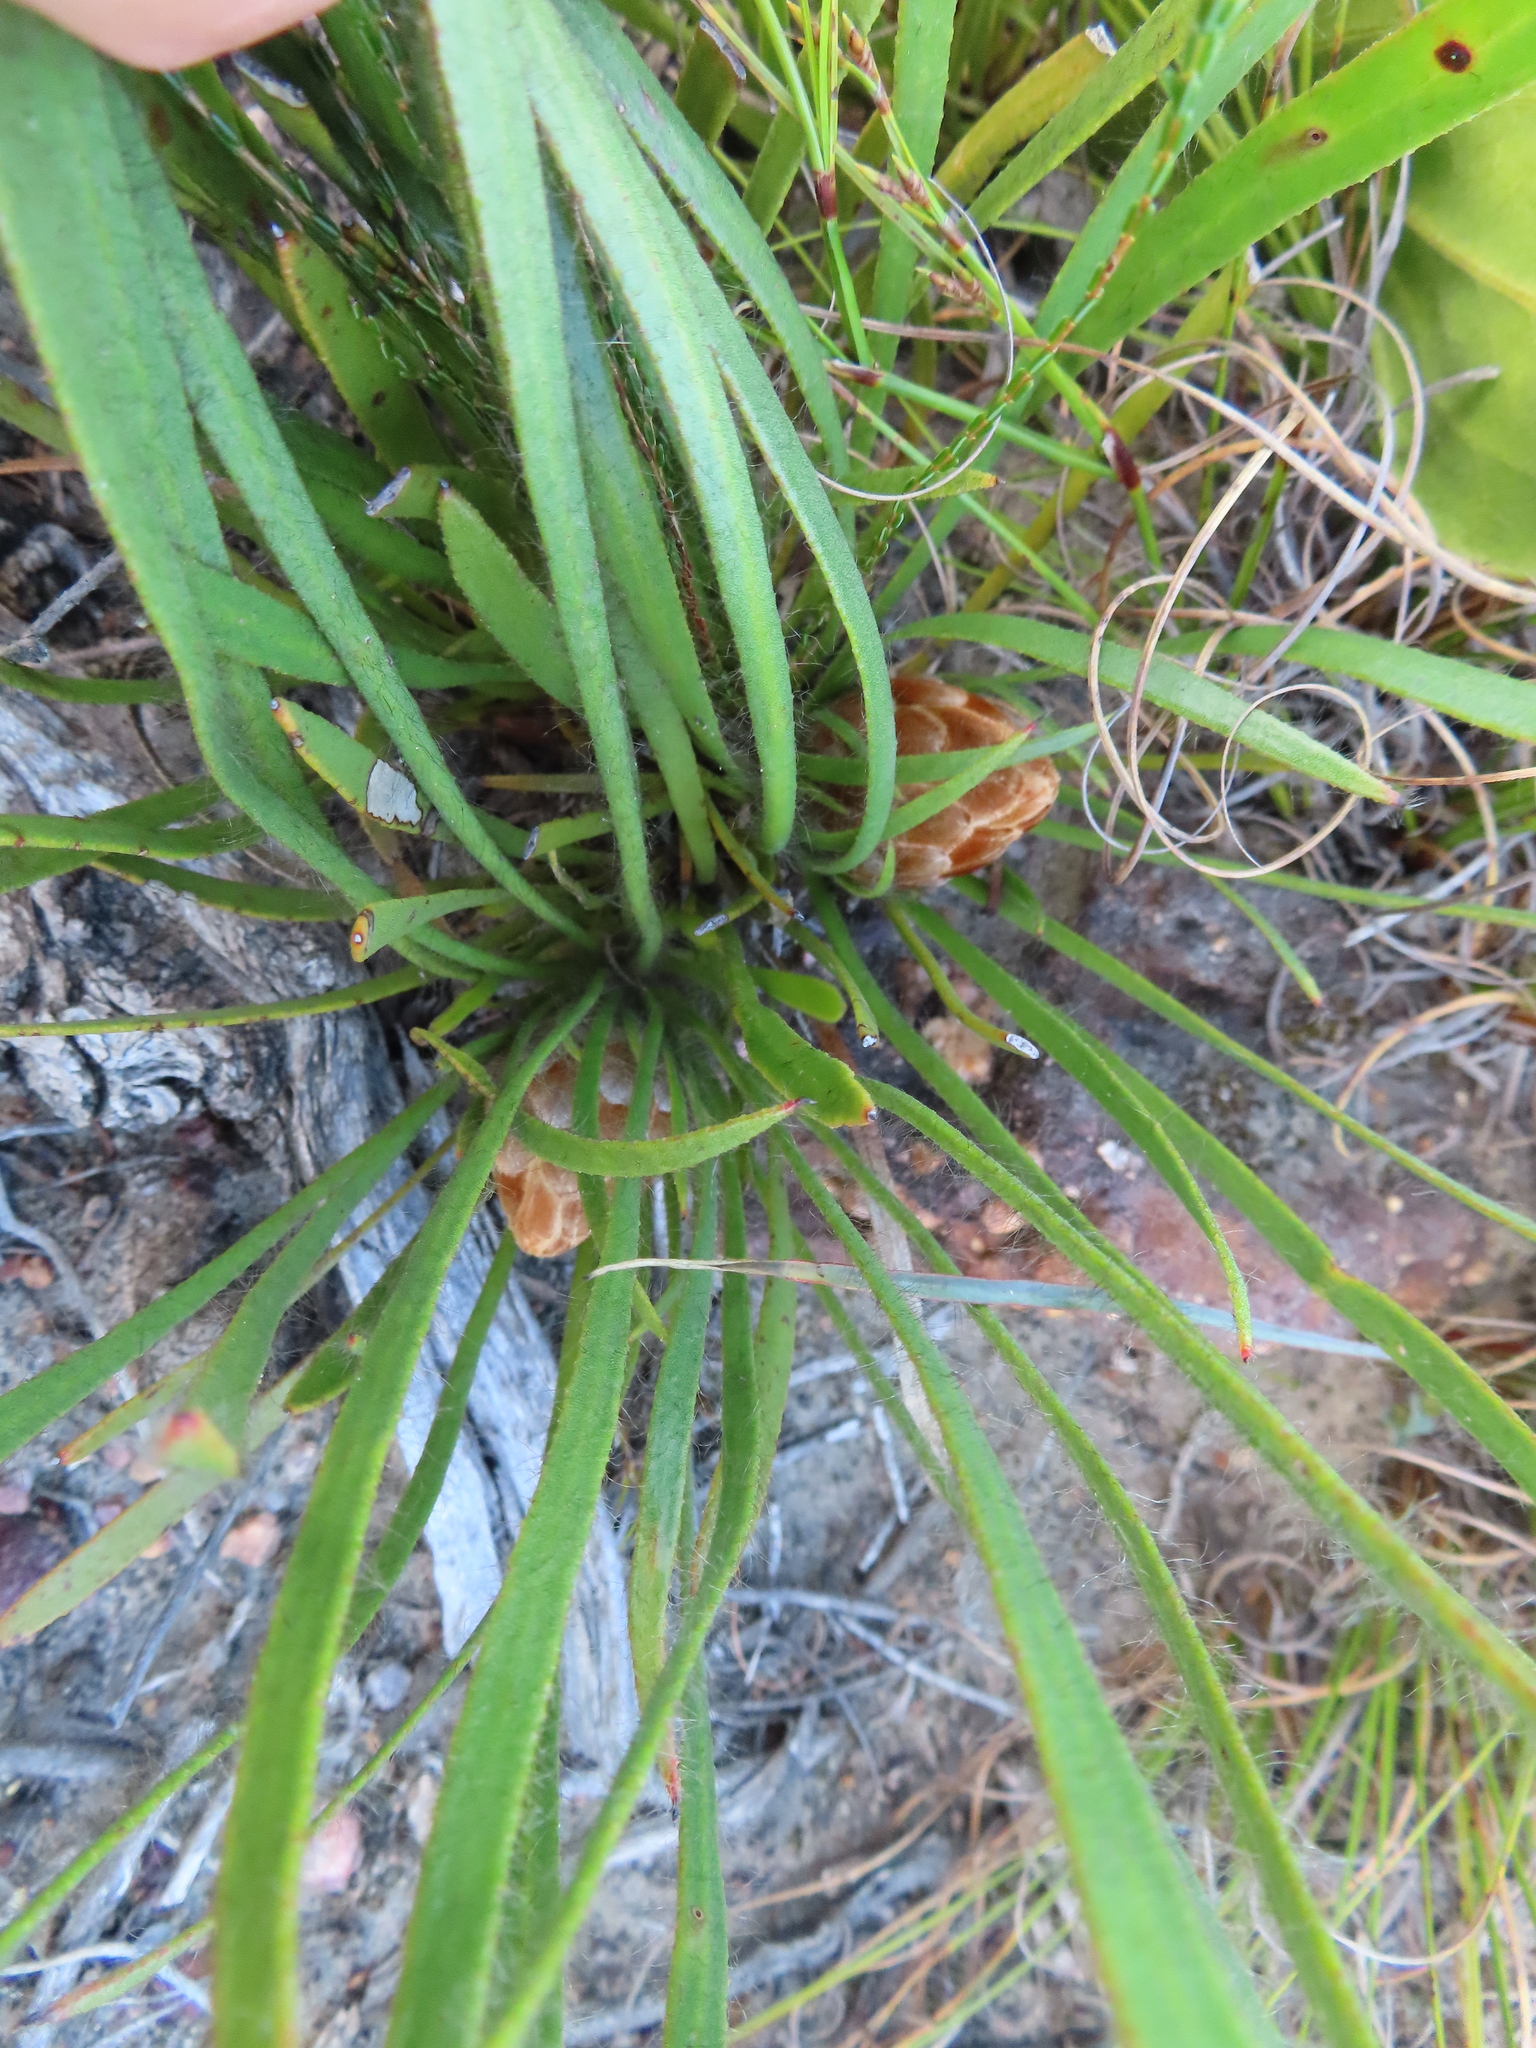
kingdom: Plantae
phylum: Tracheophyta
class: Magnoliopsida
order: Proteales
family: Proteaceae
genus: Protea
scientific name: Protea aspera
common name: Rough-leaf sugarbush
